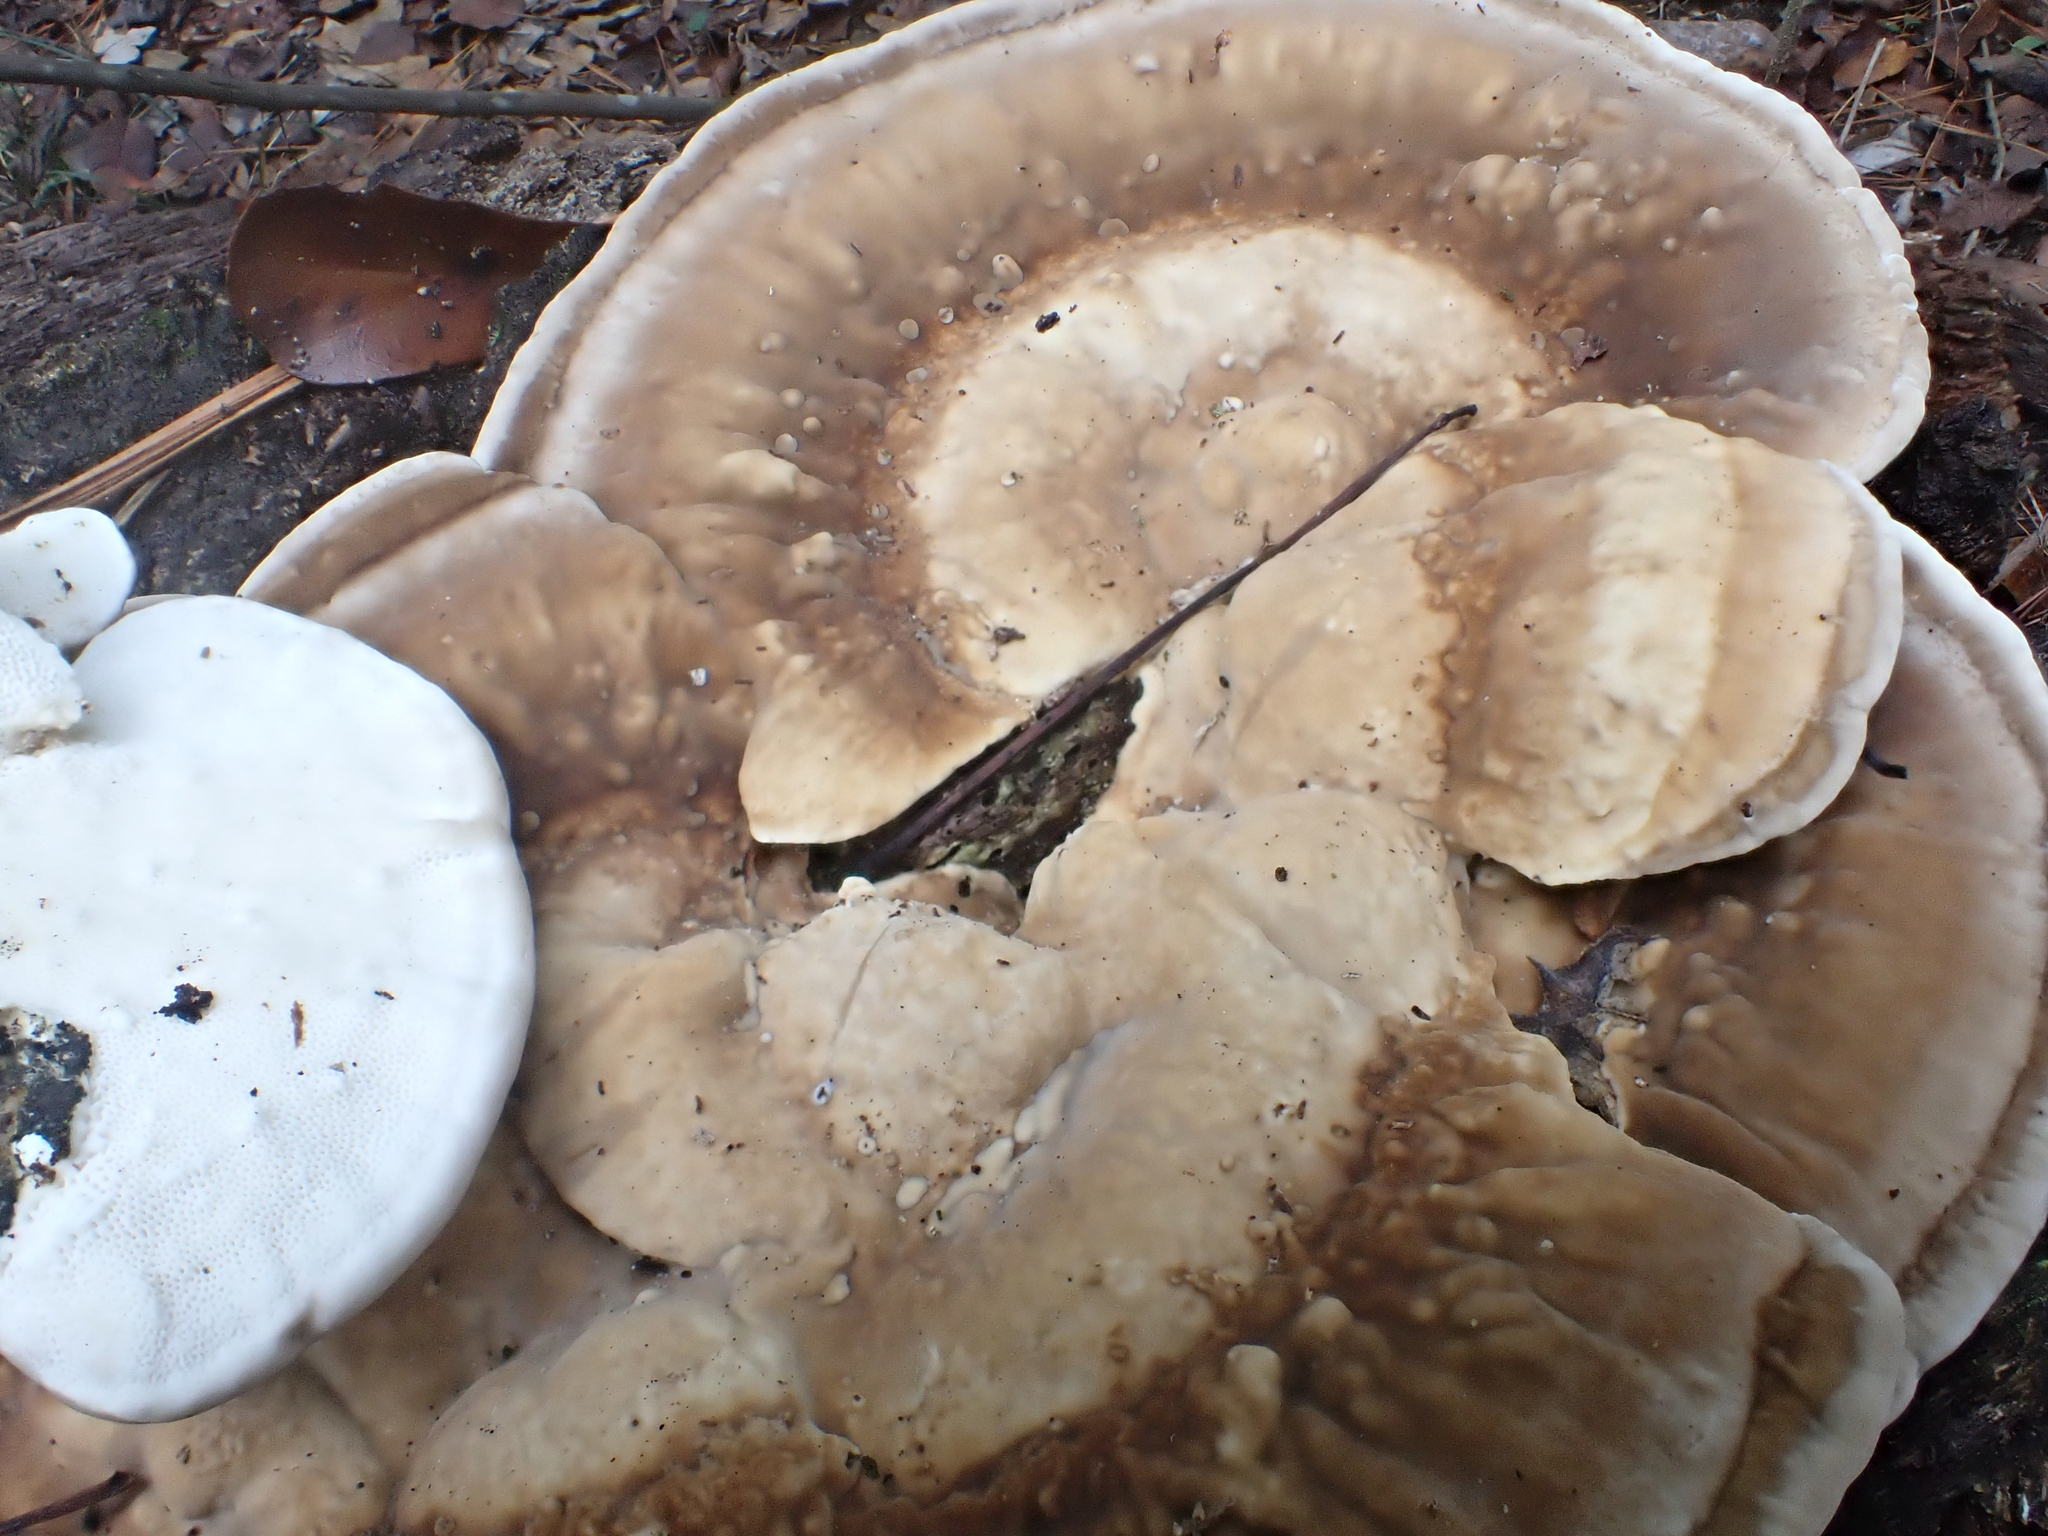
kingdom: Fungi
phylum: Basidiomycota
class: Agaricomycetes
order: Polyporales
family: Polyporaceae
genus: Trametes
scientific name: Trametes lactinea
